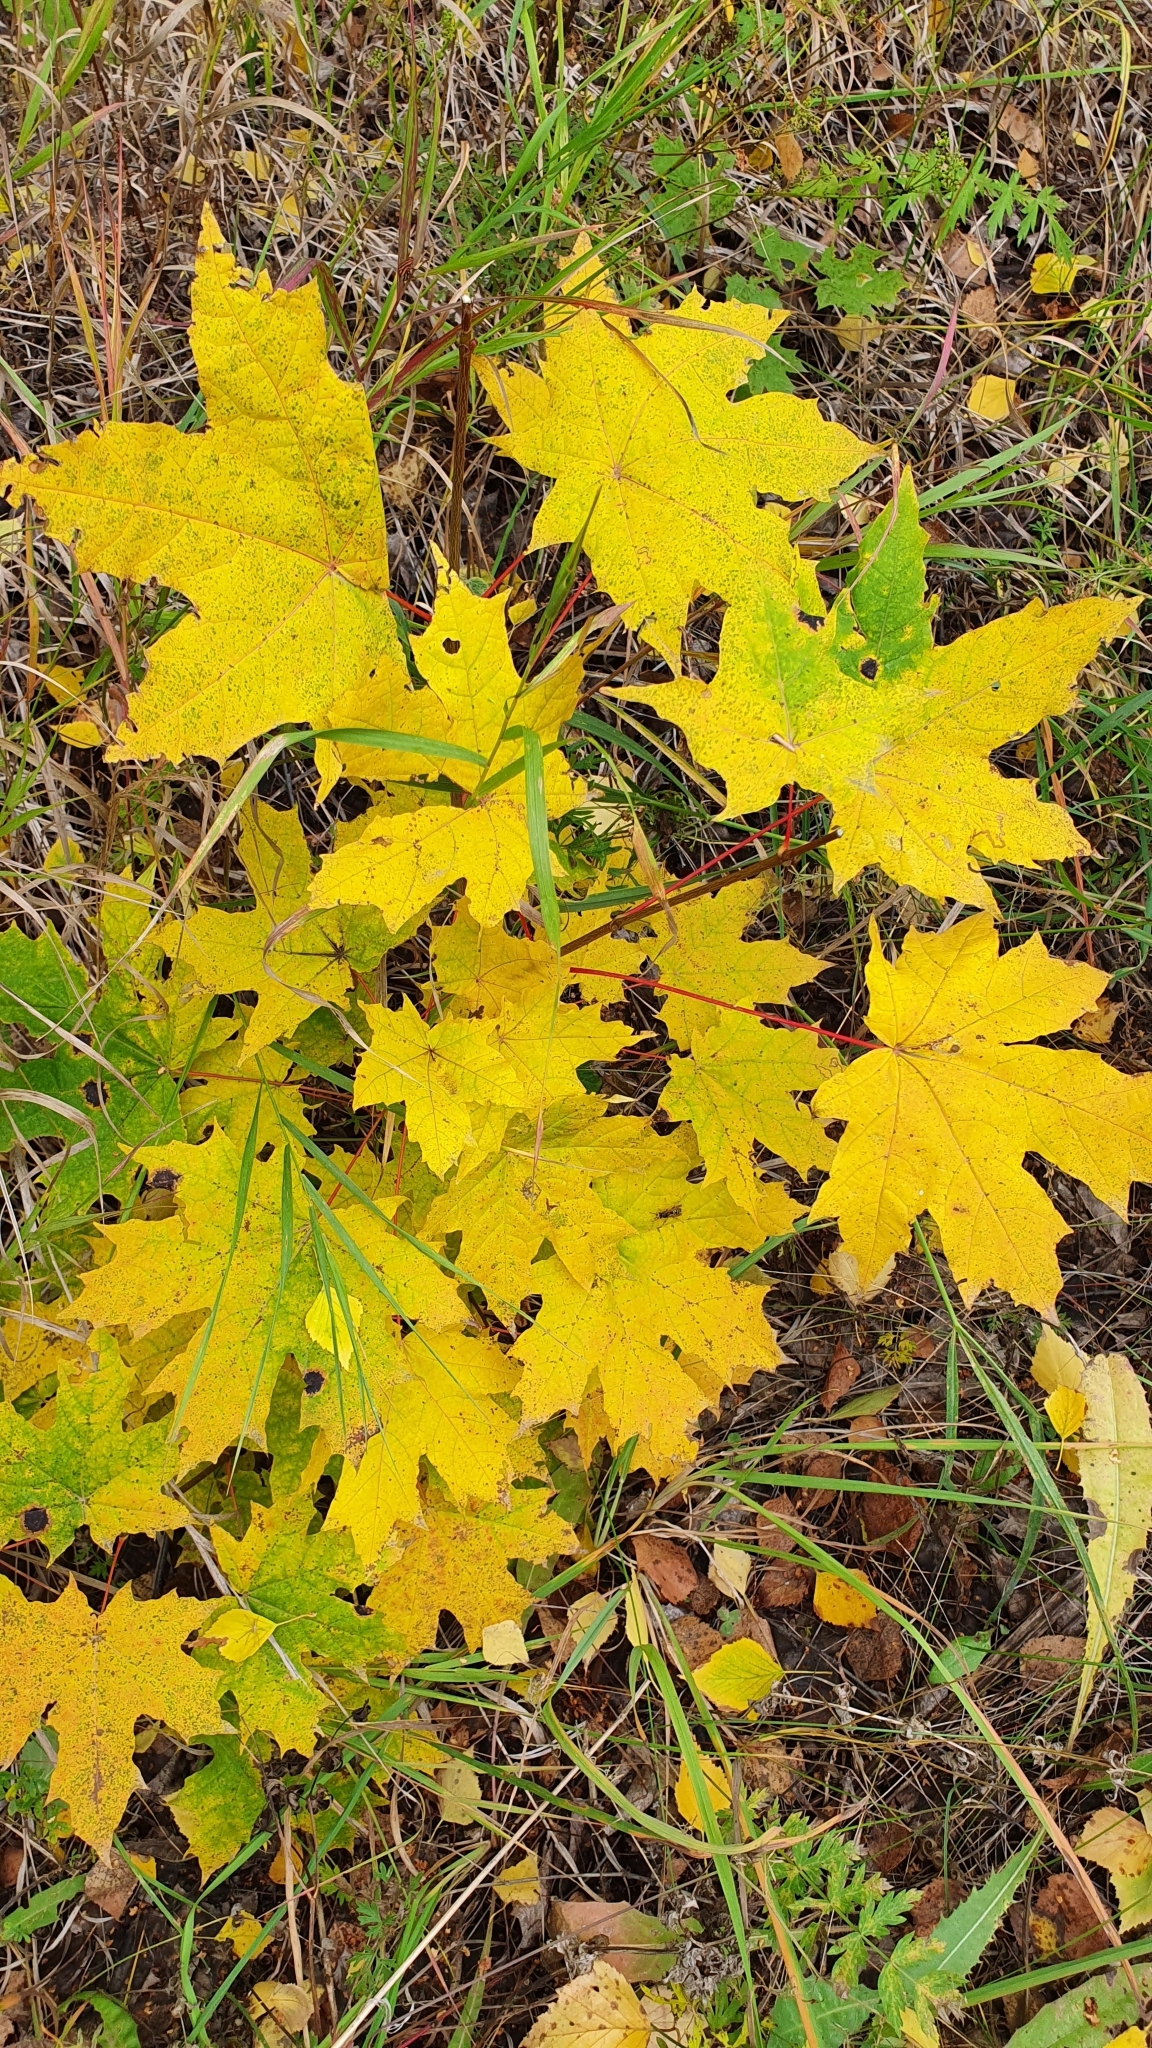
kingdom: Plantae
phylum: Tracheophyta
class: Magnoliopsida
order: Sapindales
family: Sapindaceae
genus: Acer
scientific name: Acer platanoides
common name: Norway maple
